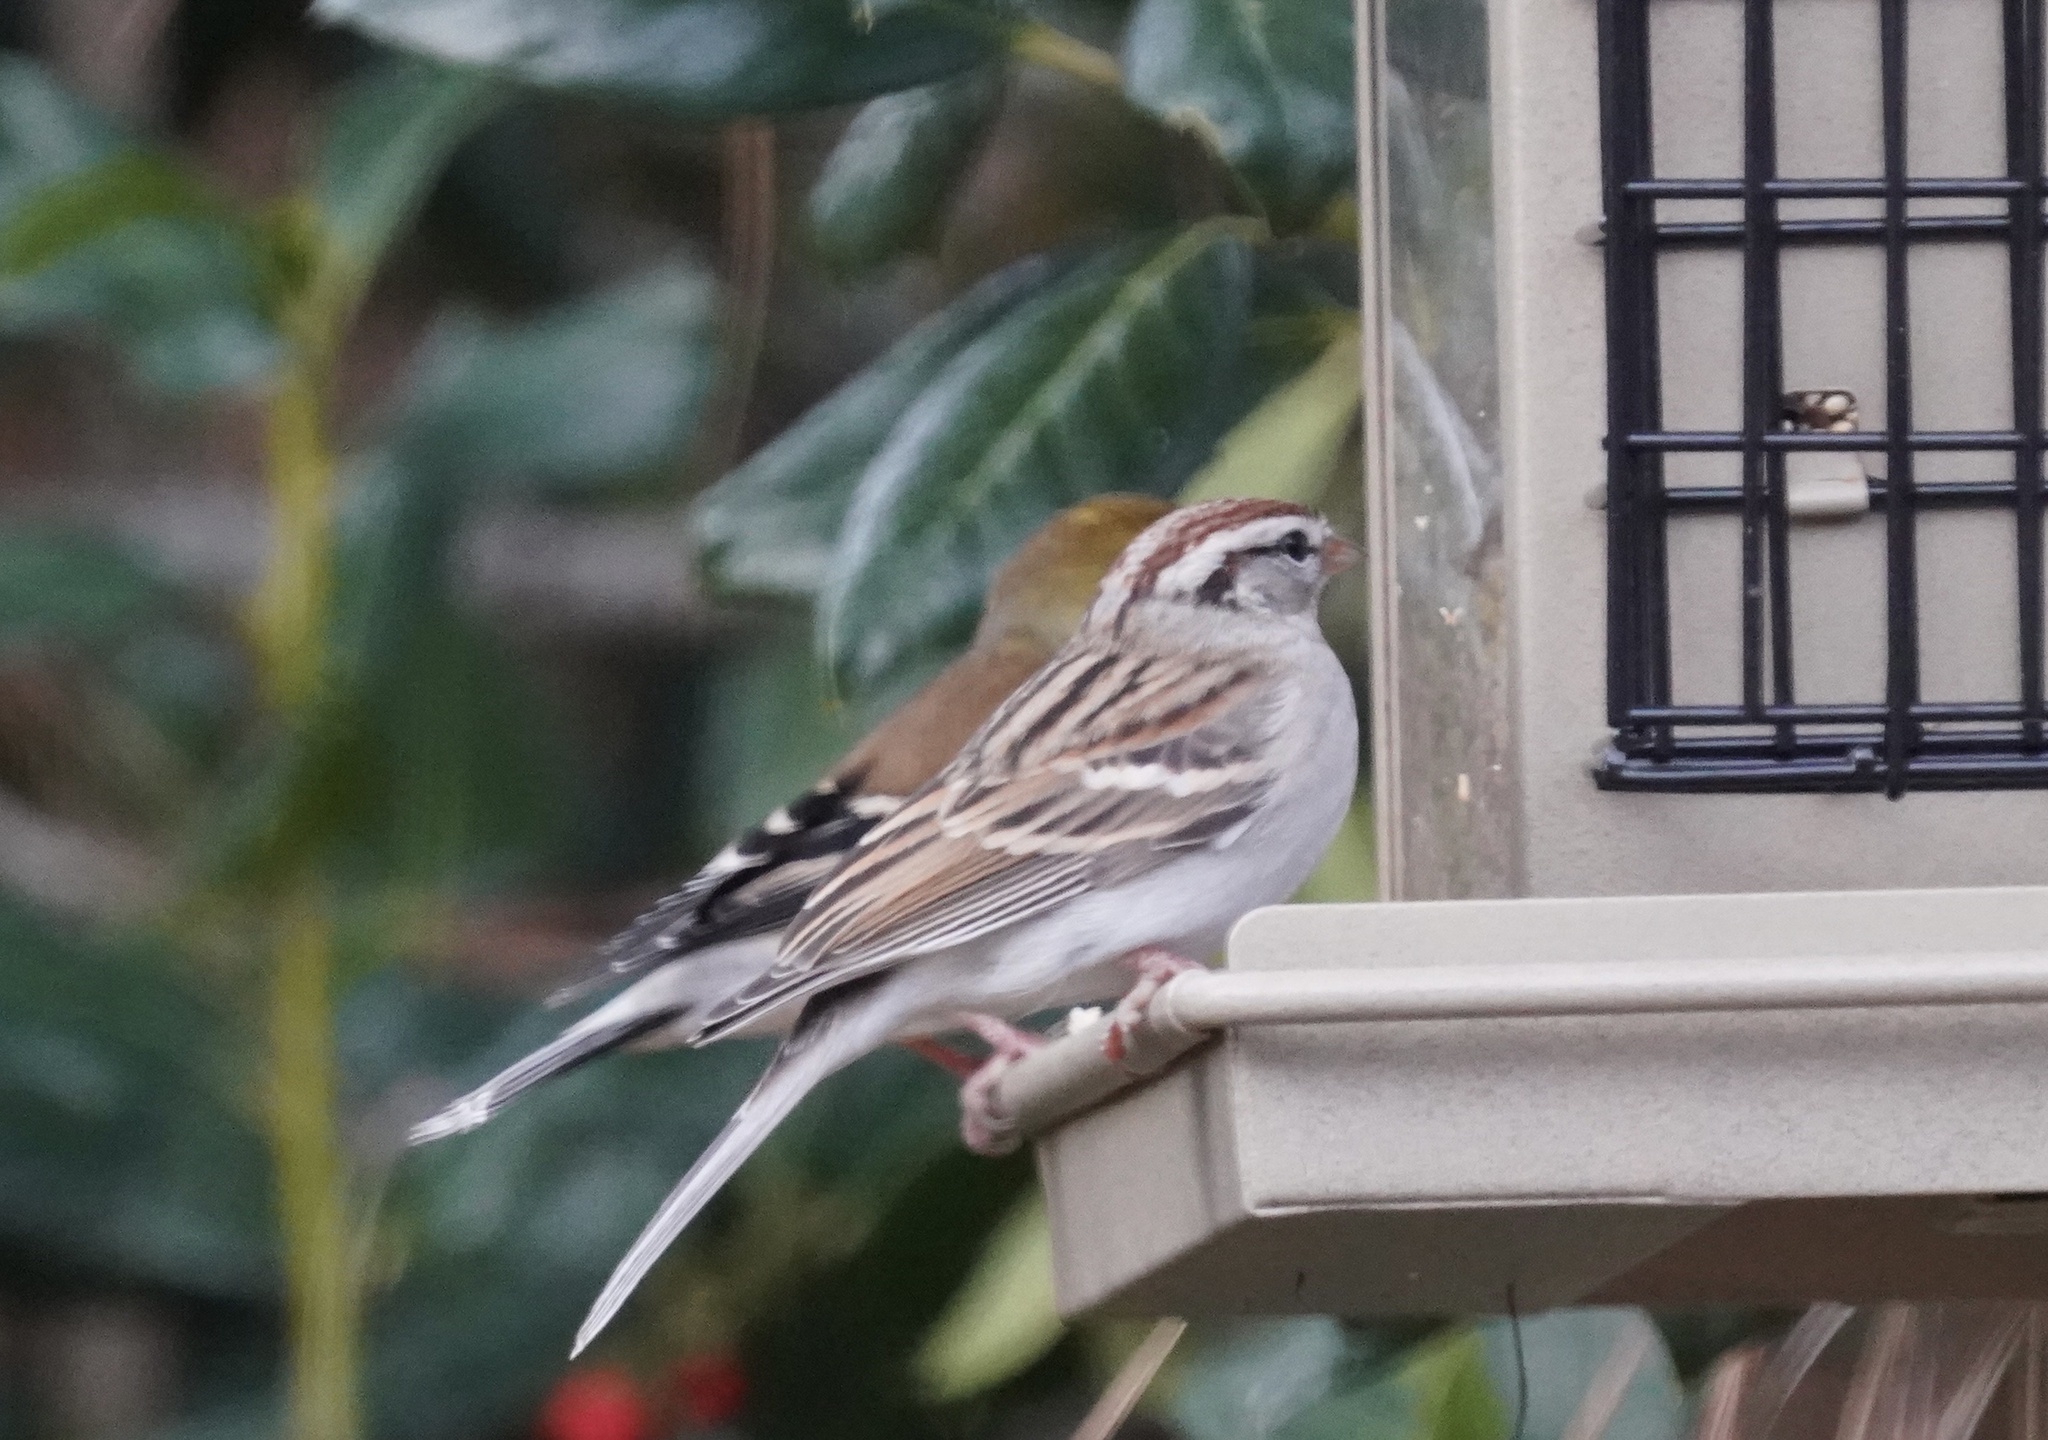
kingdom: Animalia
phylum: Chordata
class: Aves
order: Passeriformes
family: Passerellidae
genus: Spizella
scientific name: Spizella passerina
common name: Chipping sparrow
